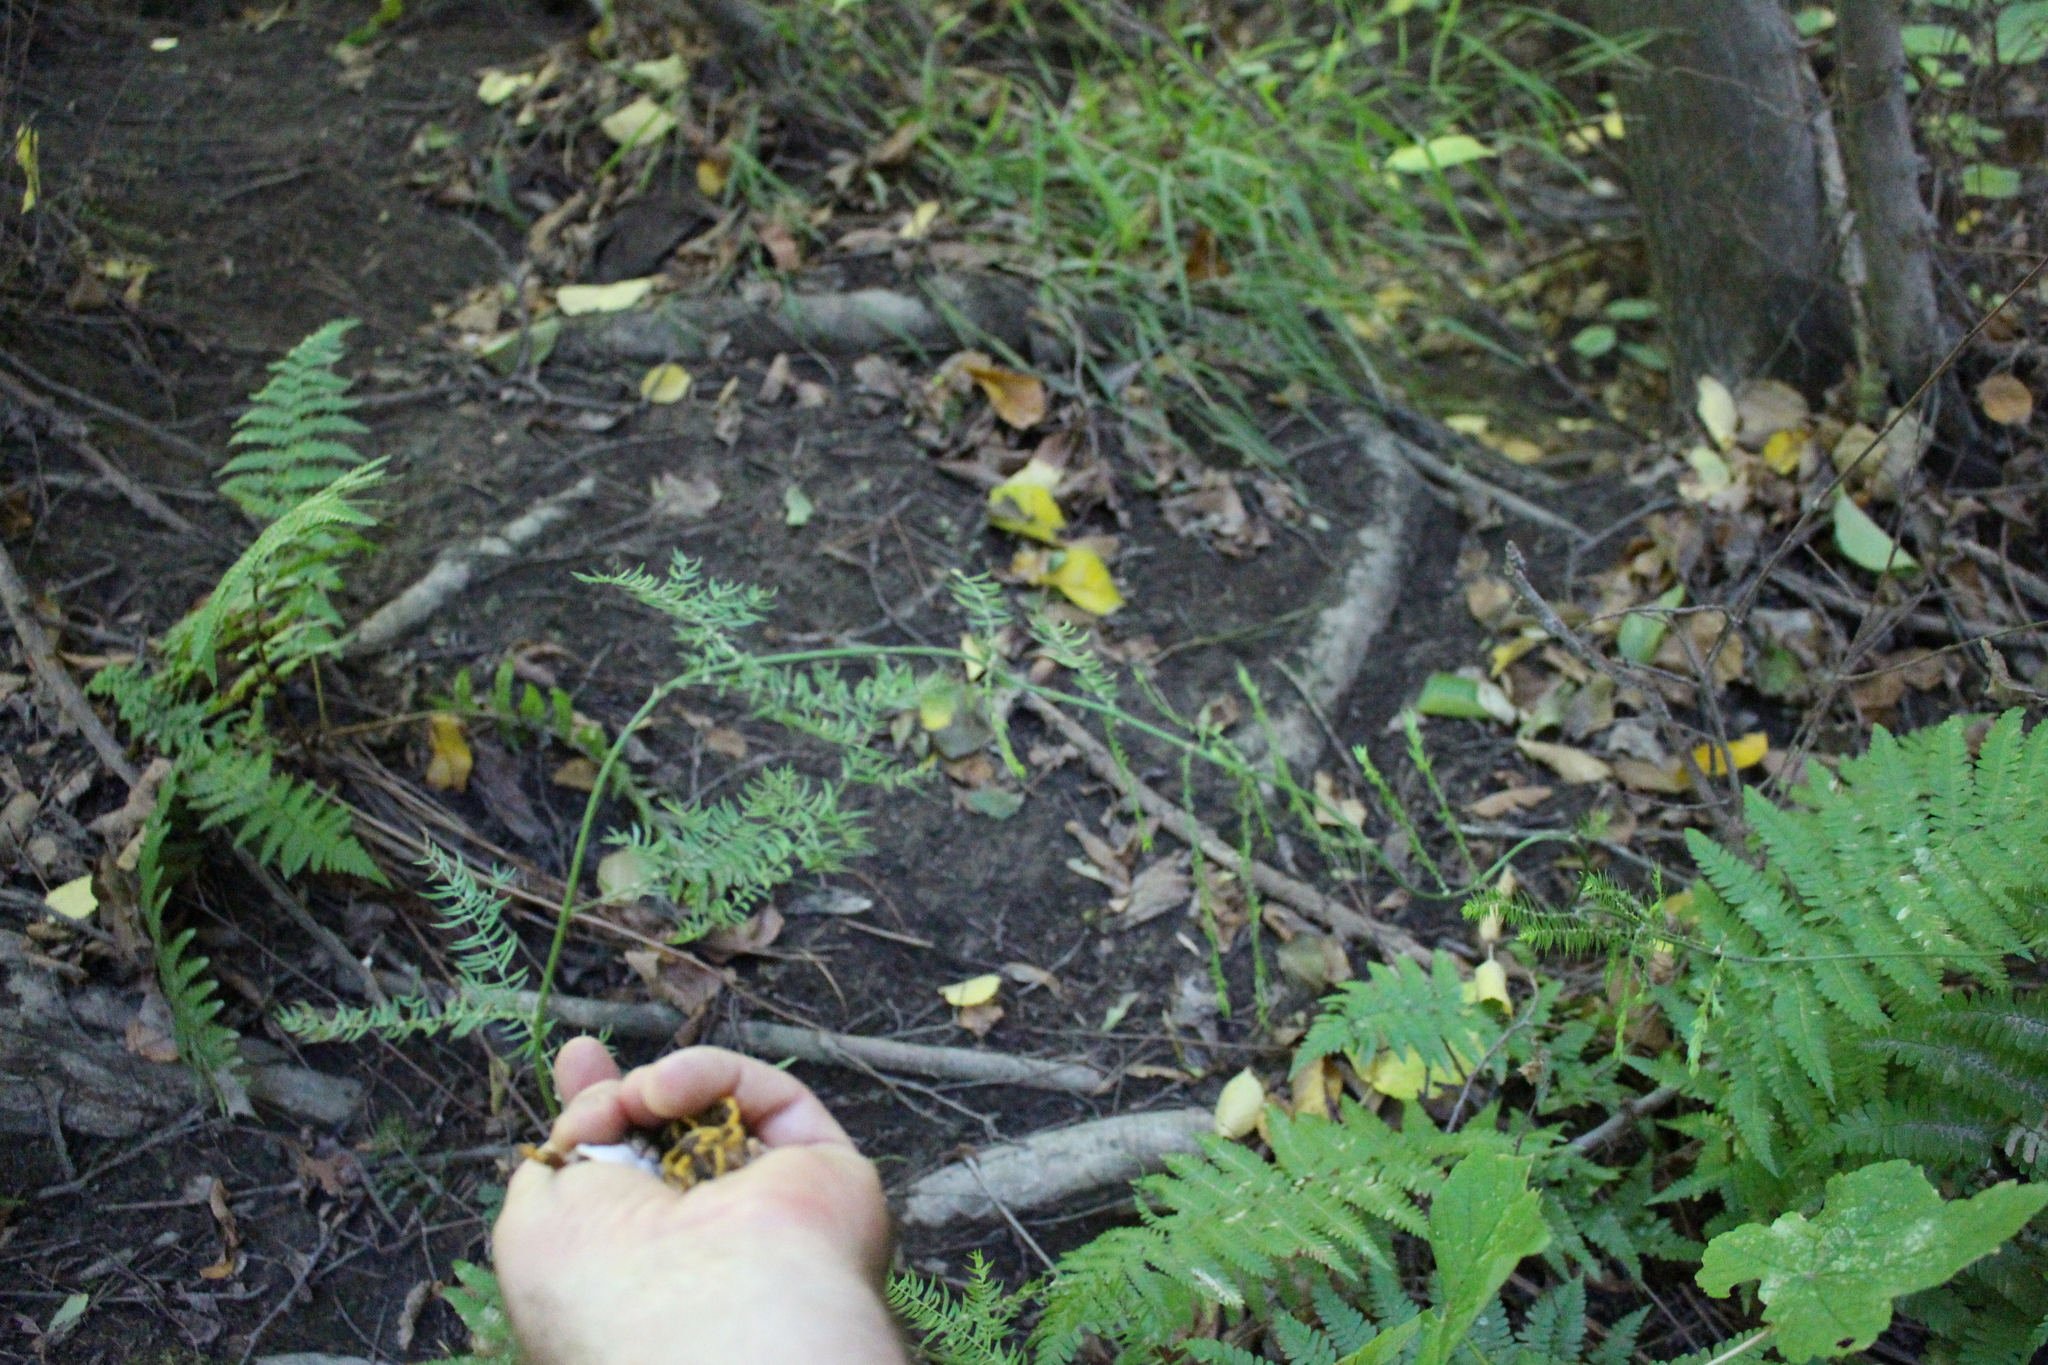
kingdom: Plantae
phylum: Tracheophyta
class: Liliopsida
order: Asparagales
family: Asparagaceae
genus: Asparagus
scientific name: Asparagus scandens
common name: Asparagus-fern
